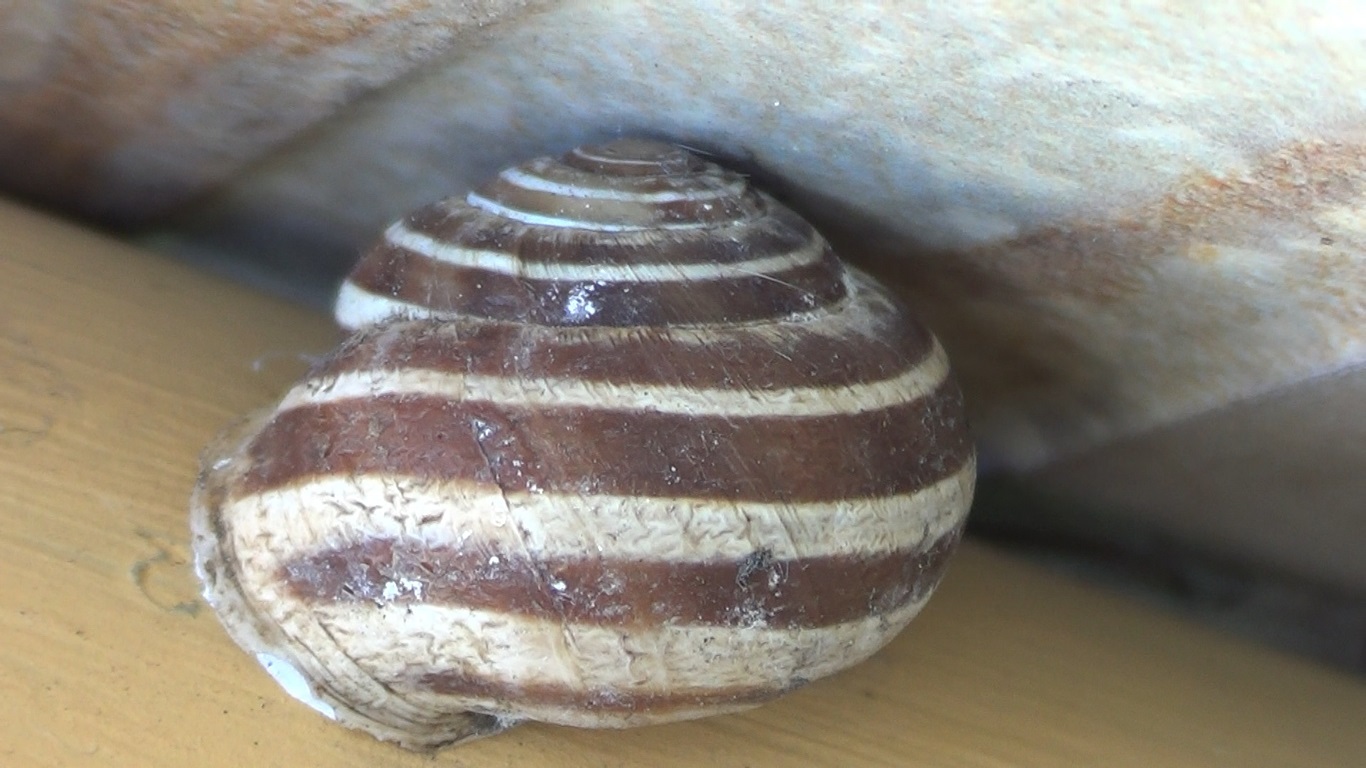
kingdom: Animalia
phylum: Mollusca
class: Gastropoda
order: Stylommatophora
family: Helicidae
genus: Eobania
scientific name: Eobania vermiculata
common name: Chocolateband snail
